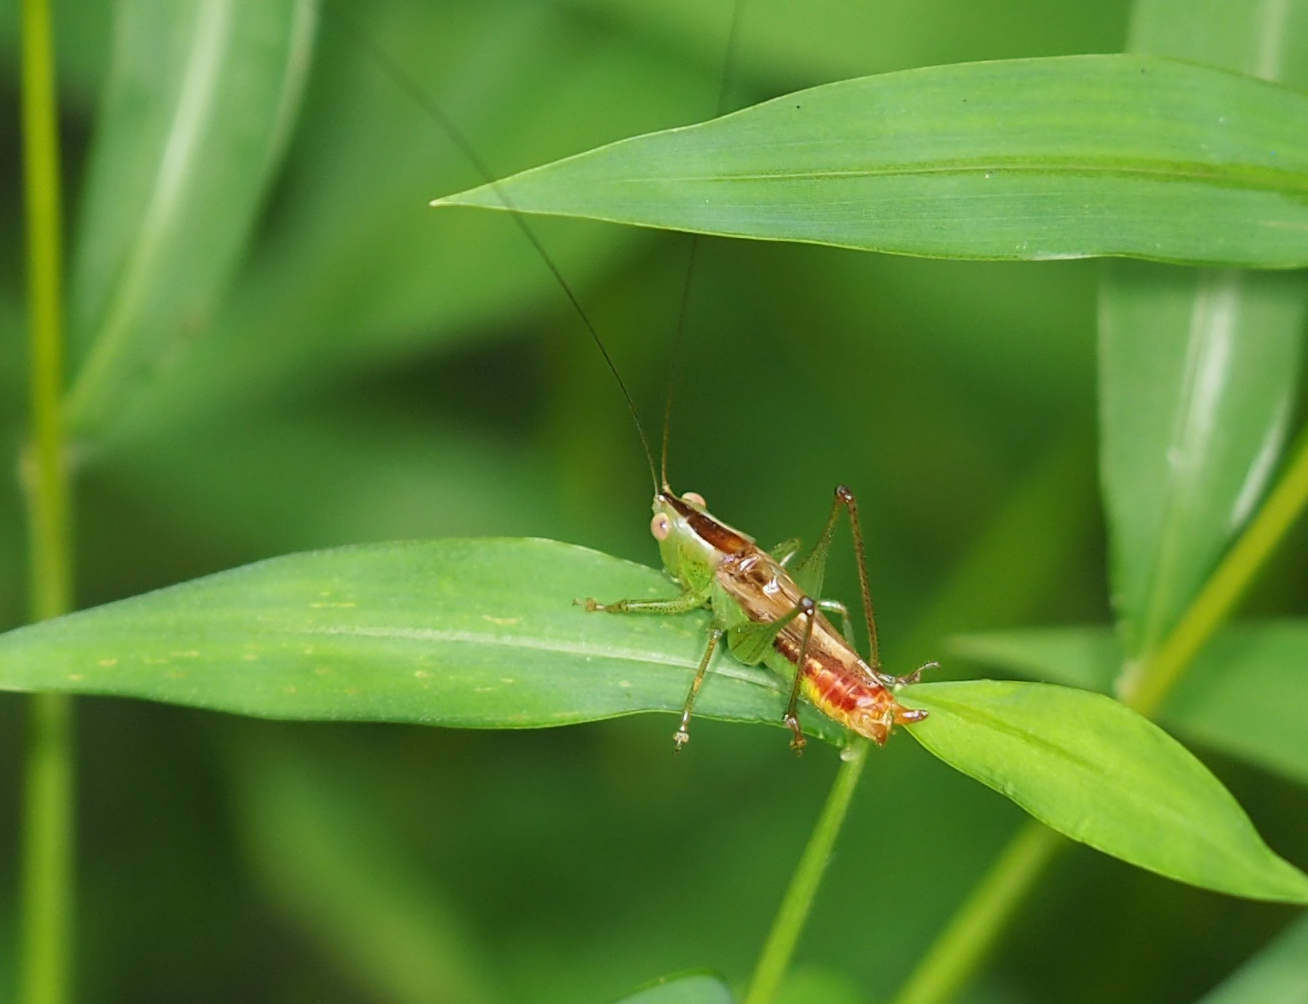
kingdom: Animalia
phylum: Arthropoda
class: Insecta
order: Orthoptera
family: Tettigoniidae
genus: Conocephalus
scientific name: Conocephalus brevipennis
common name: Short-winged meadow katydid
